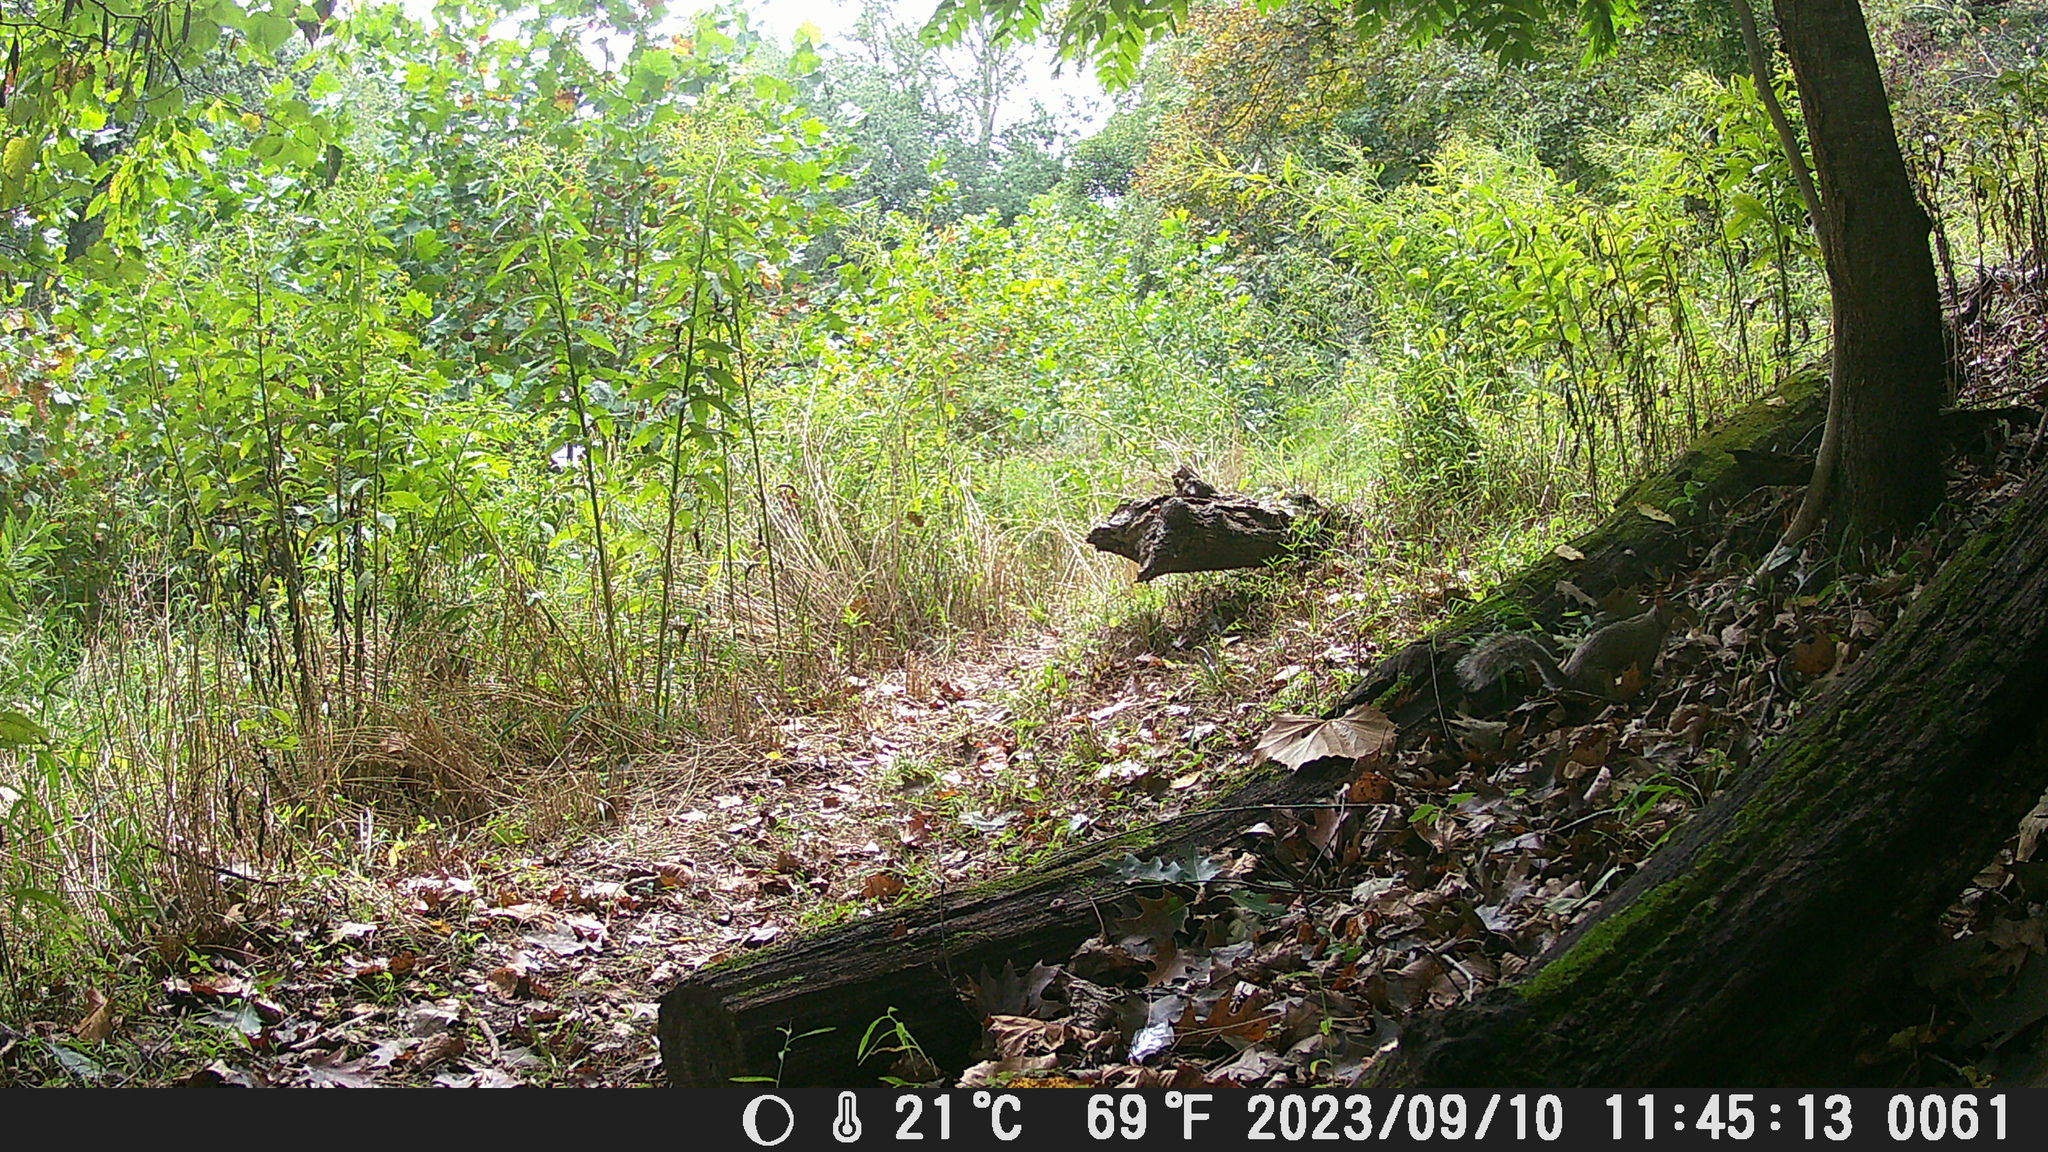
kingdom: Animalia
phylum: Chordata
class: Mammalia
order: Rodentia
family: Sciuridae
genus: Sciurus
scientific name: Sciurus carolinensis
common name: Eastern gray squirrel
